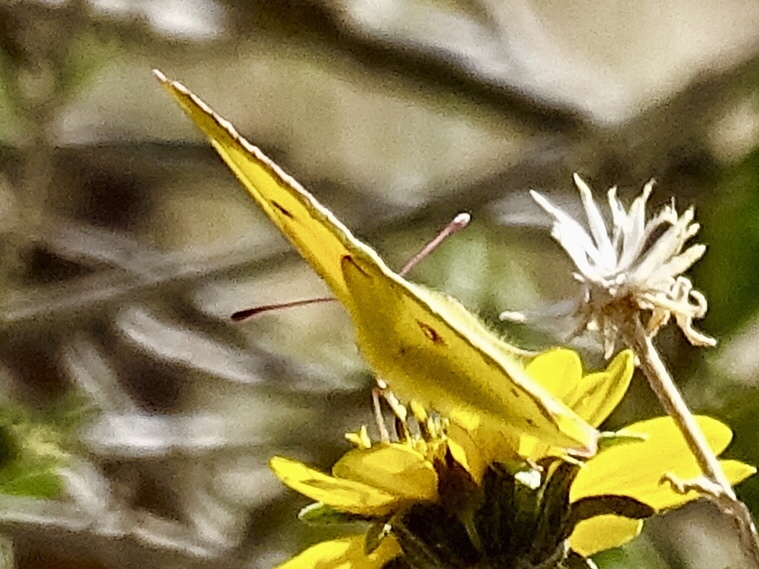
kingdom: Animalia
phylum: Arthropoda
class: Insecta
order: Lepidoptera
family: Pieridae
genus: Colias
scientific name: Colias eurytheme
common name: Alfalfa butterfly
